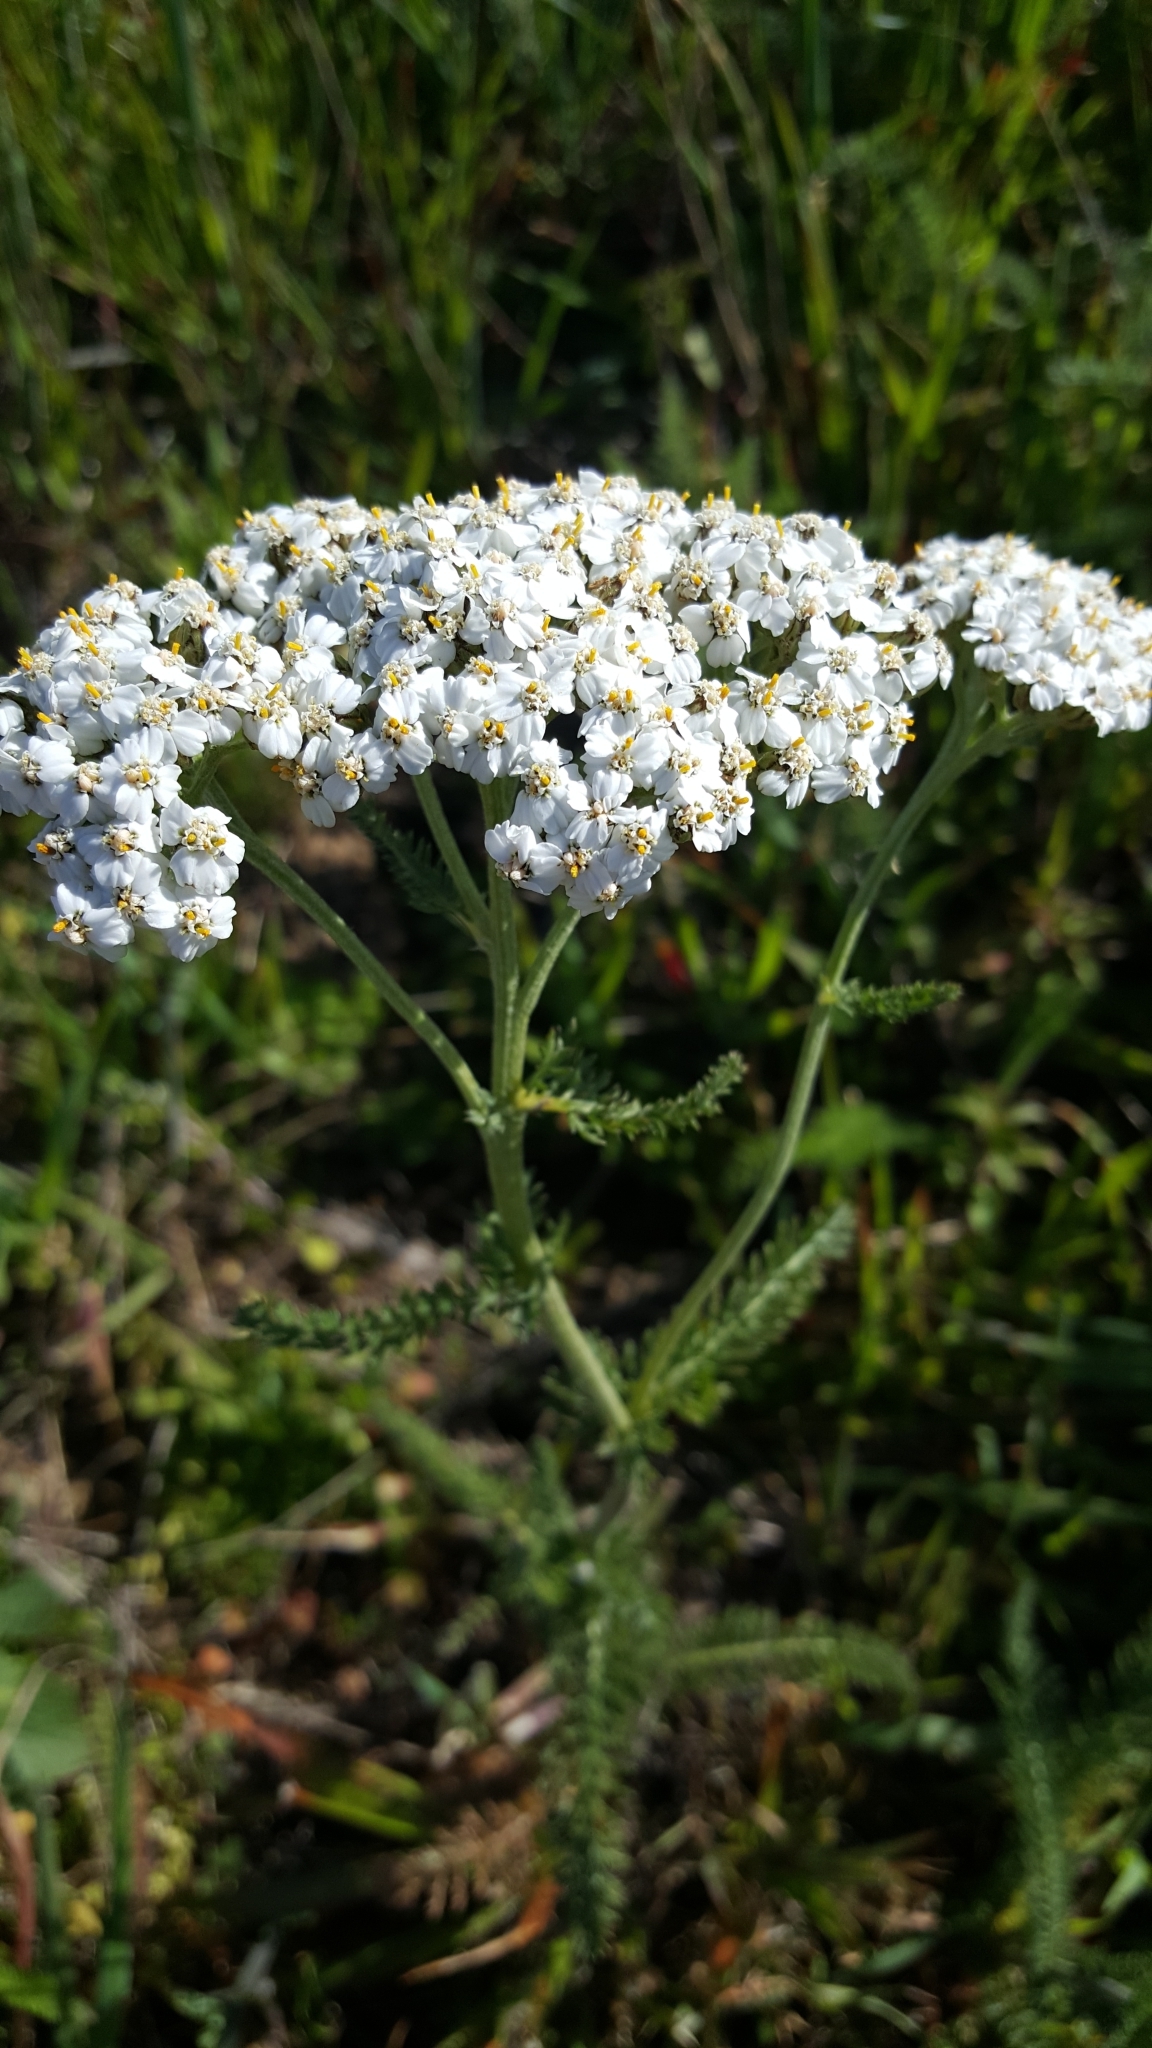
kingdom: Plantae
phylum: Tracheophyta
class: Magnoliopsida
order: Asterales
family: Asteraceae
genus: Achillea
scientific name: Achillea millefolium
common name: Yarrow
